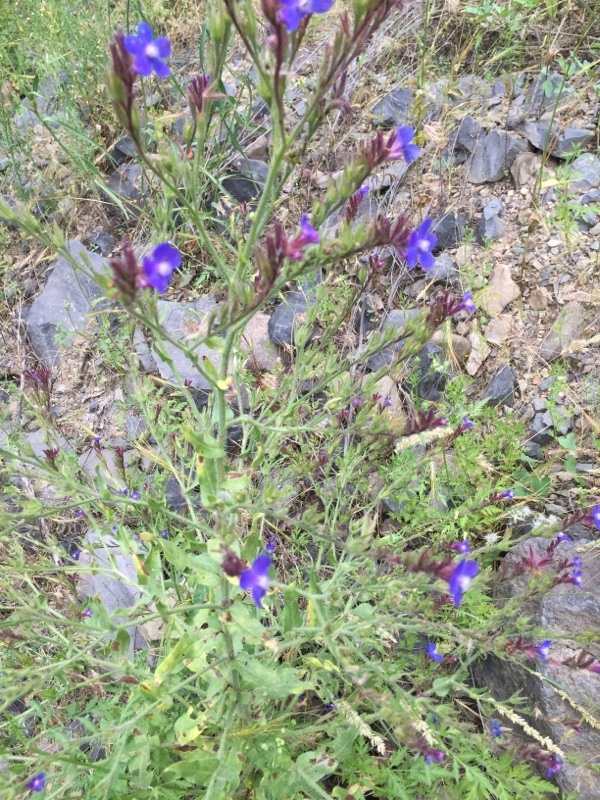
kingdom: Plantae
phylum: Tracheophyta
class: Magnoliopsida
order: Boraginales
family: Boraginaceae
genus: Anchusa
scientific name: Anchusa azurea
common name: Garden anchusa
